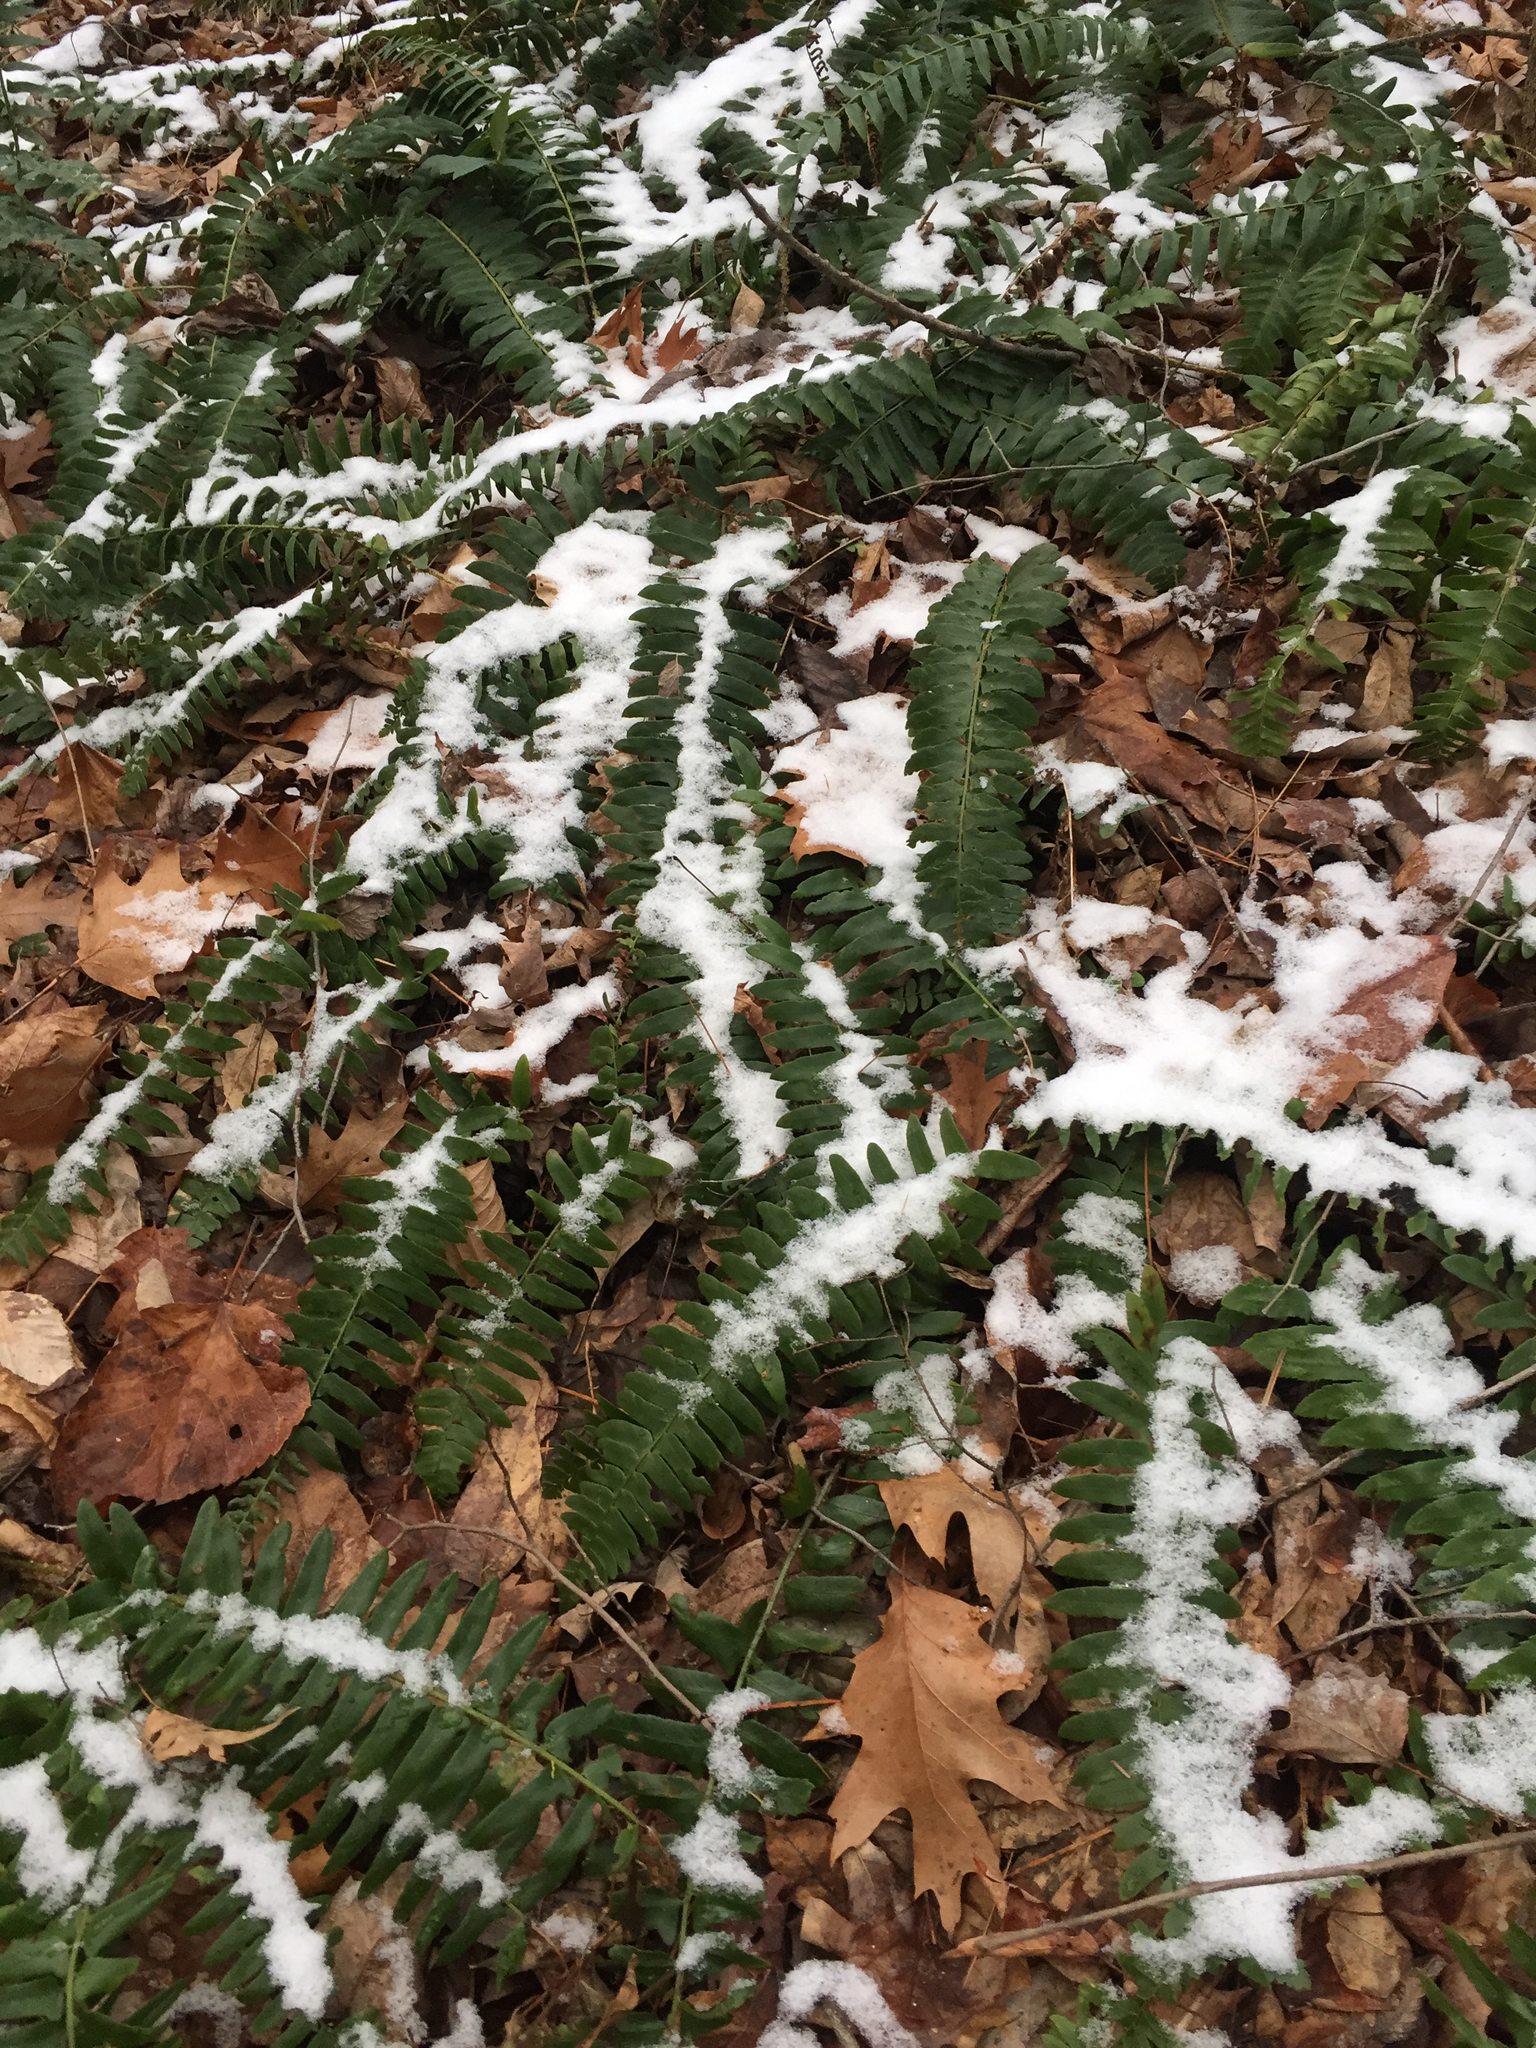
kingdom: Plantae
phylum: Tracheophyta
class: Polypodiopsida
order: Polypodiales
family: Dryopteridaceae
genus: Polystichum
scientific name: Polystichum acrostichoides
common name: Christmas fern
